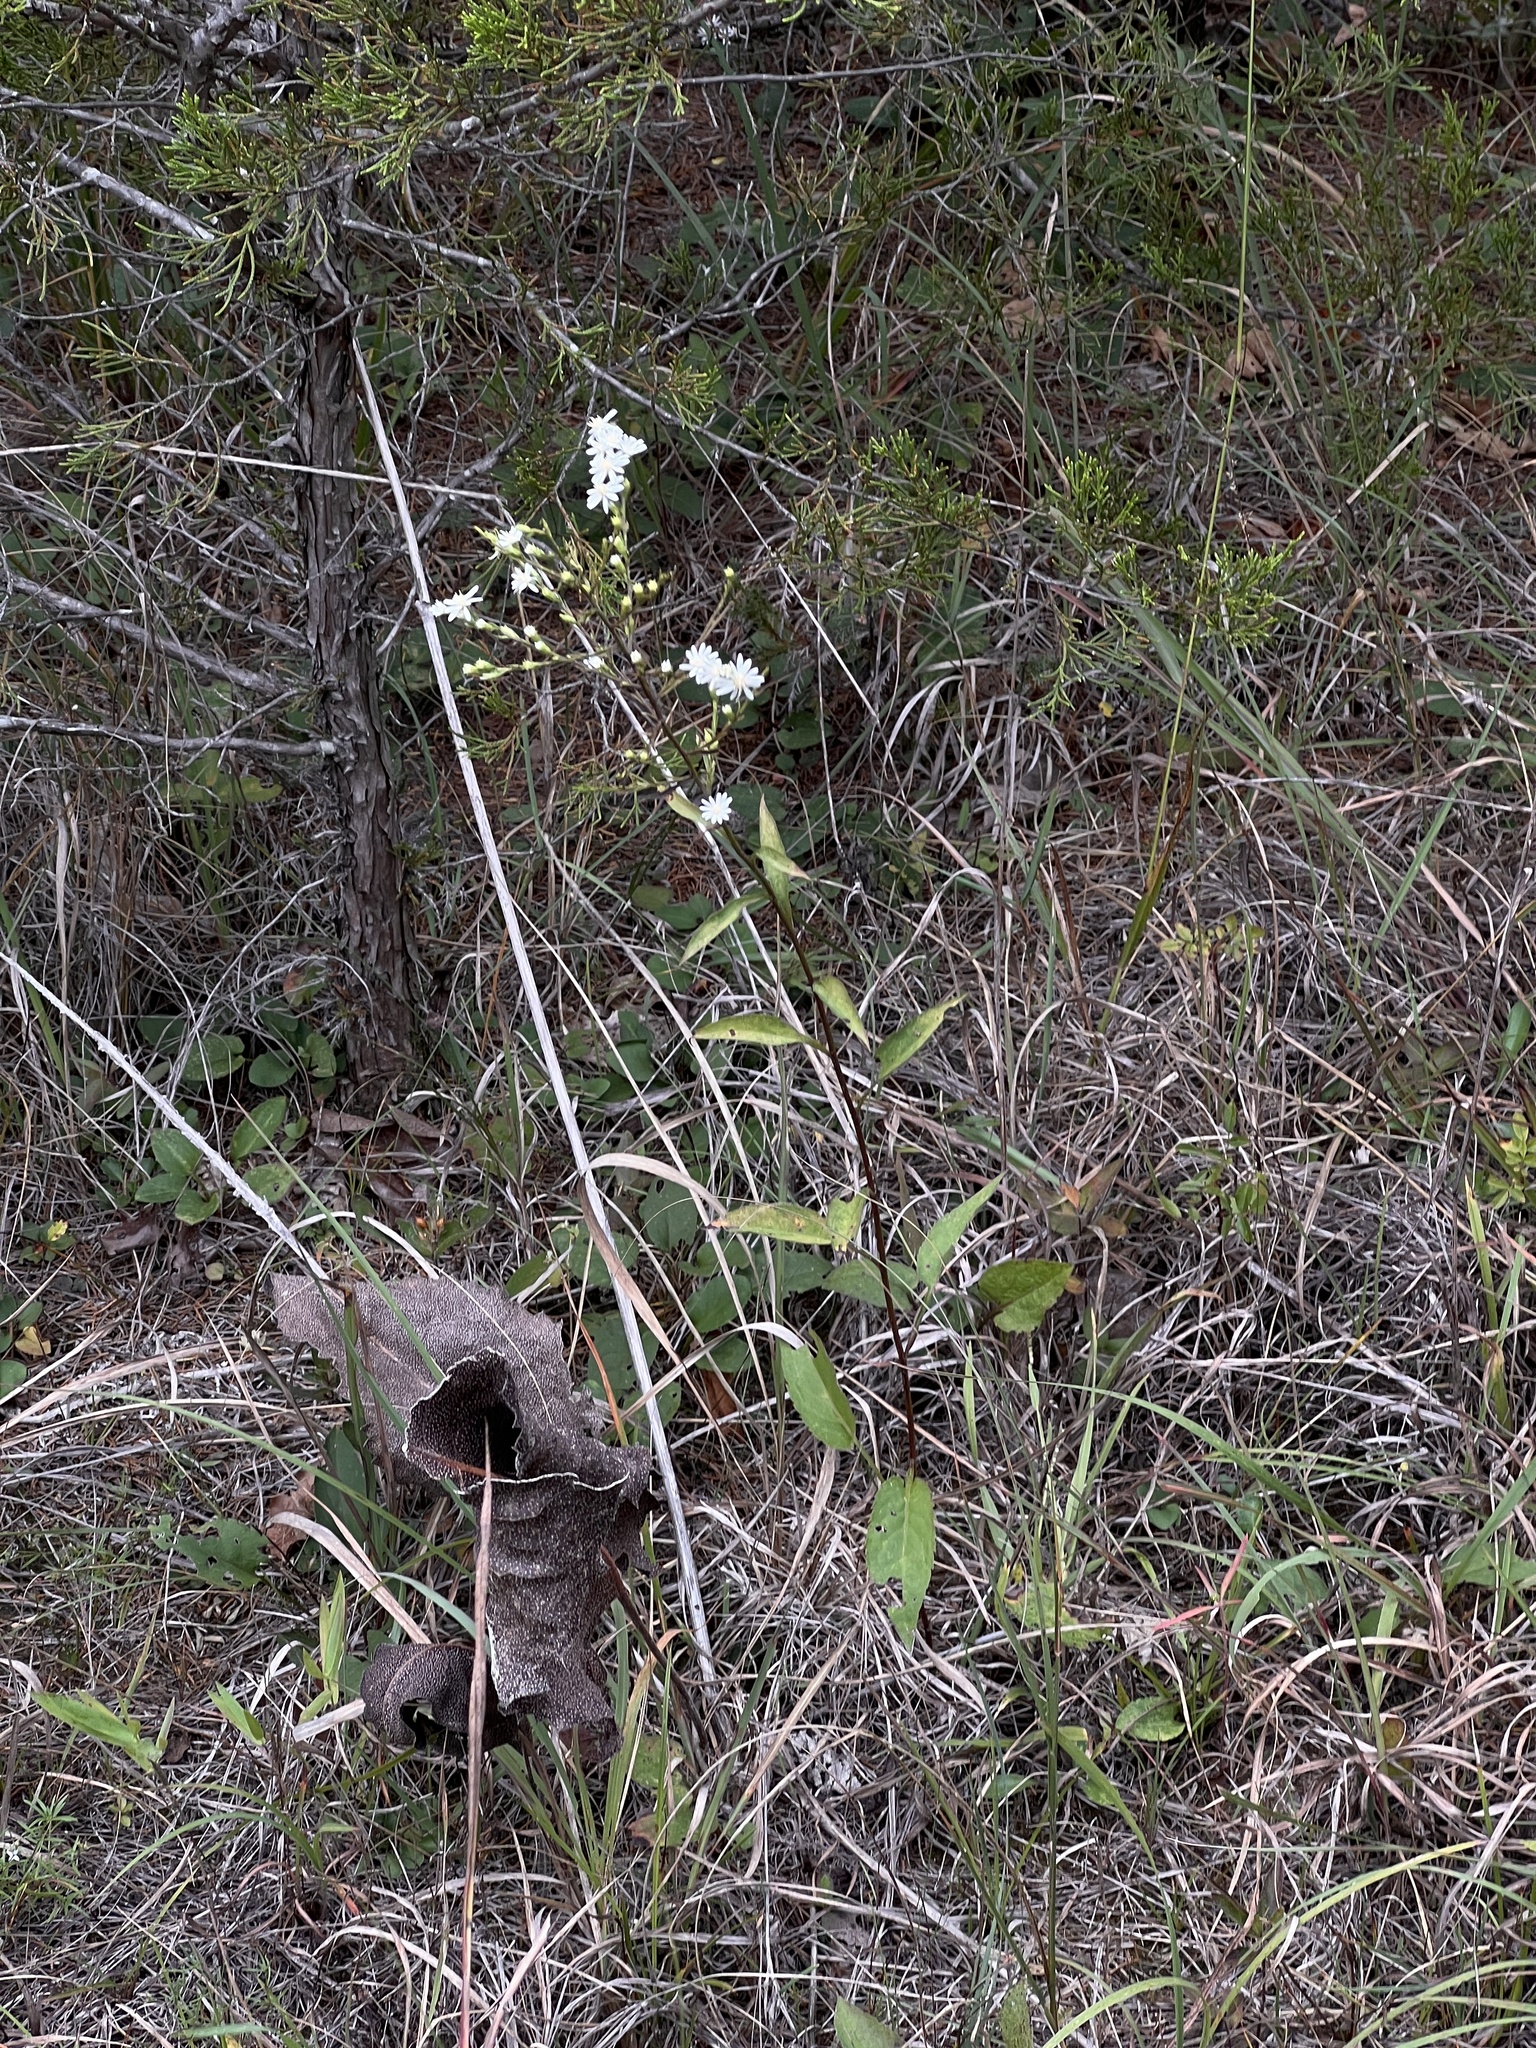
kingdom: Plantae
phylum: Tracheophyta
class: Magnoliopsida
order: Asterales
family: Asteraceae
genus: Symphyotrichum
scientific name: Symphyotrichum urophyllum
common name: Arrow-leaved aster
